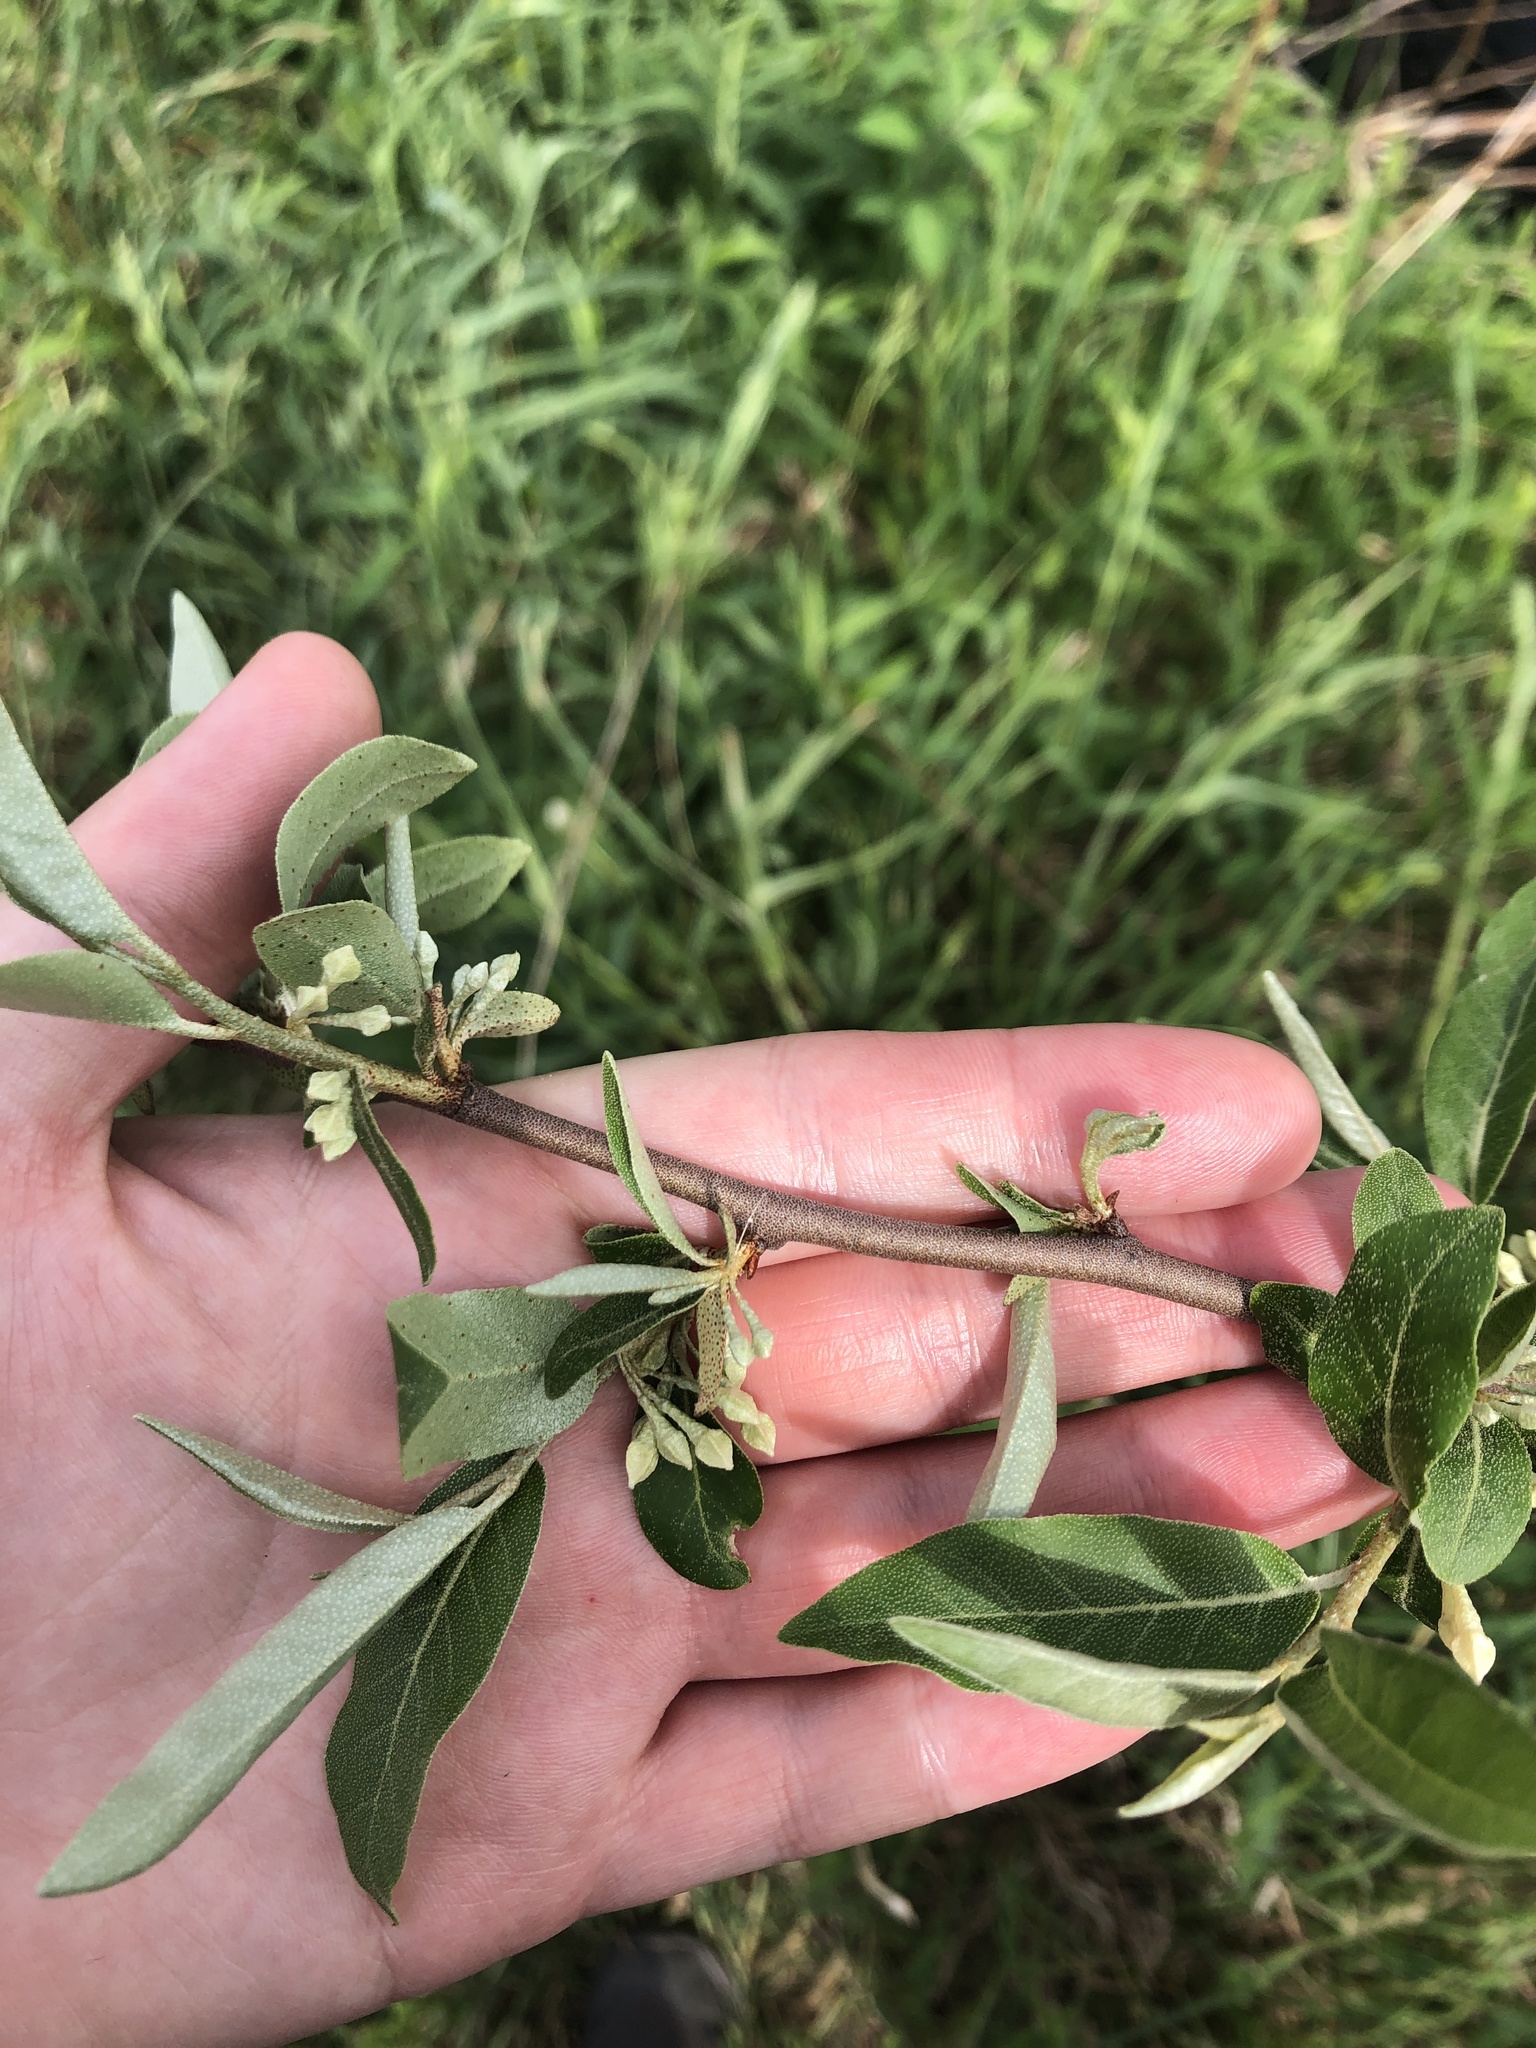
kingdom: Plantae
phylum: Tracheophyta
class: Magnoliopsida
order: Rosales
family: Elaeagnaceae
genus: Elaeagnus
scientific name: Elaeagnus umbellata
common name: Autumn olive
